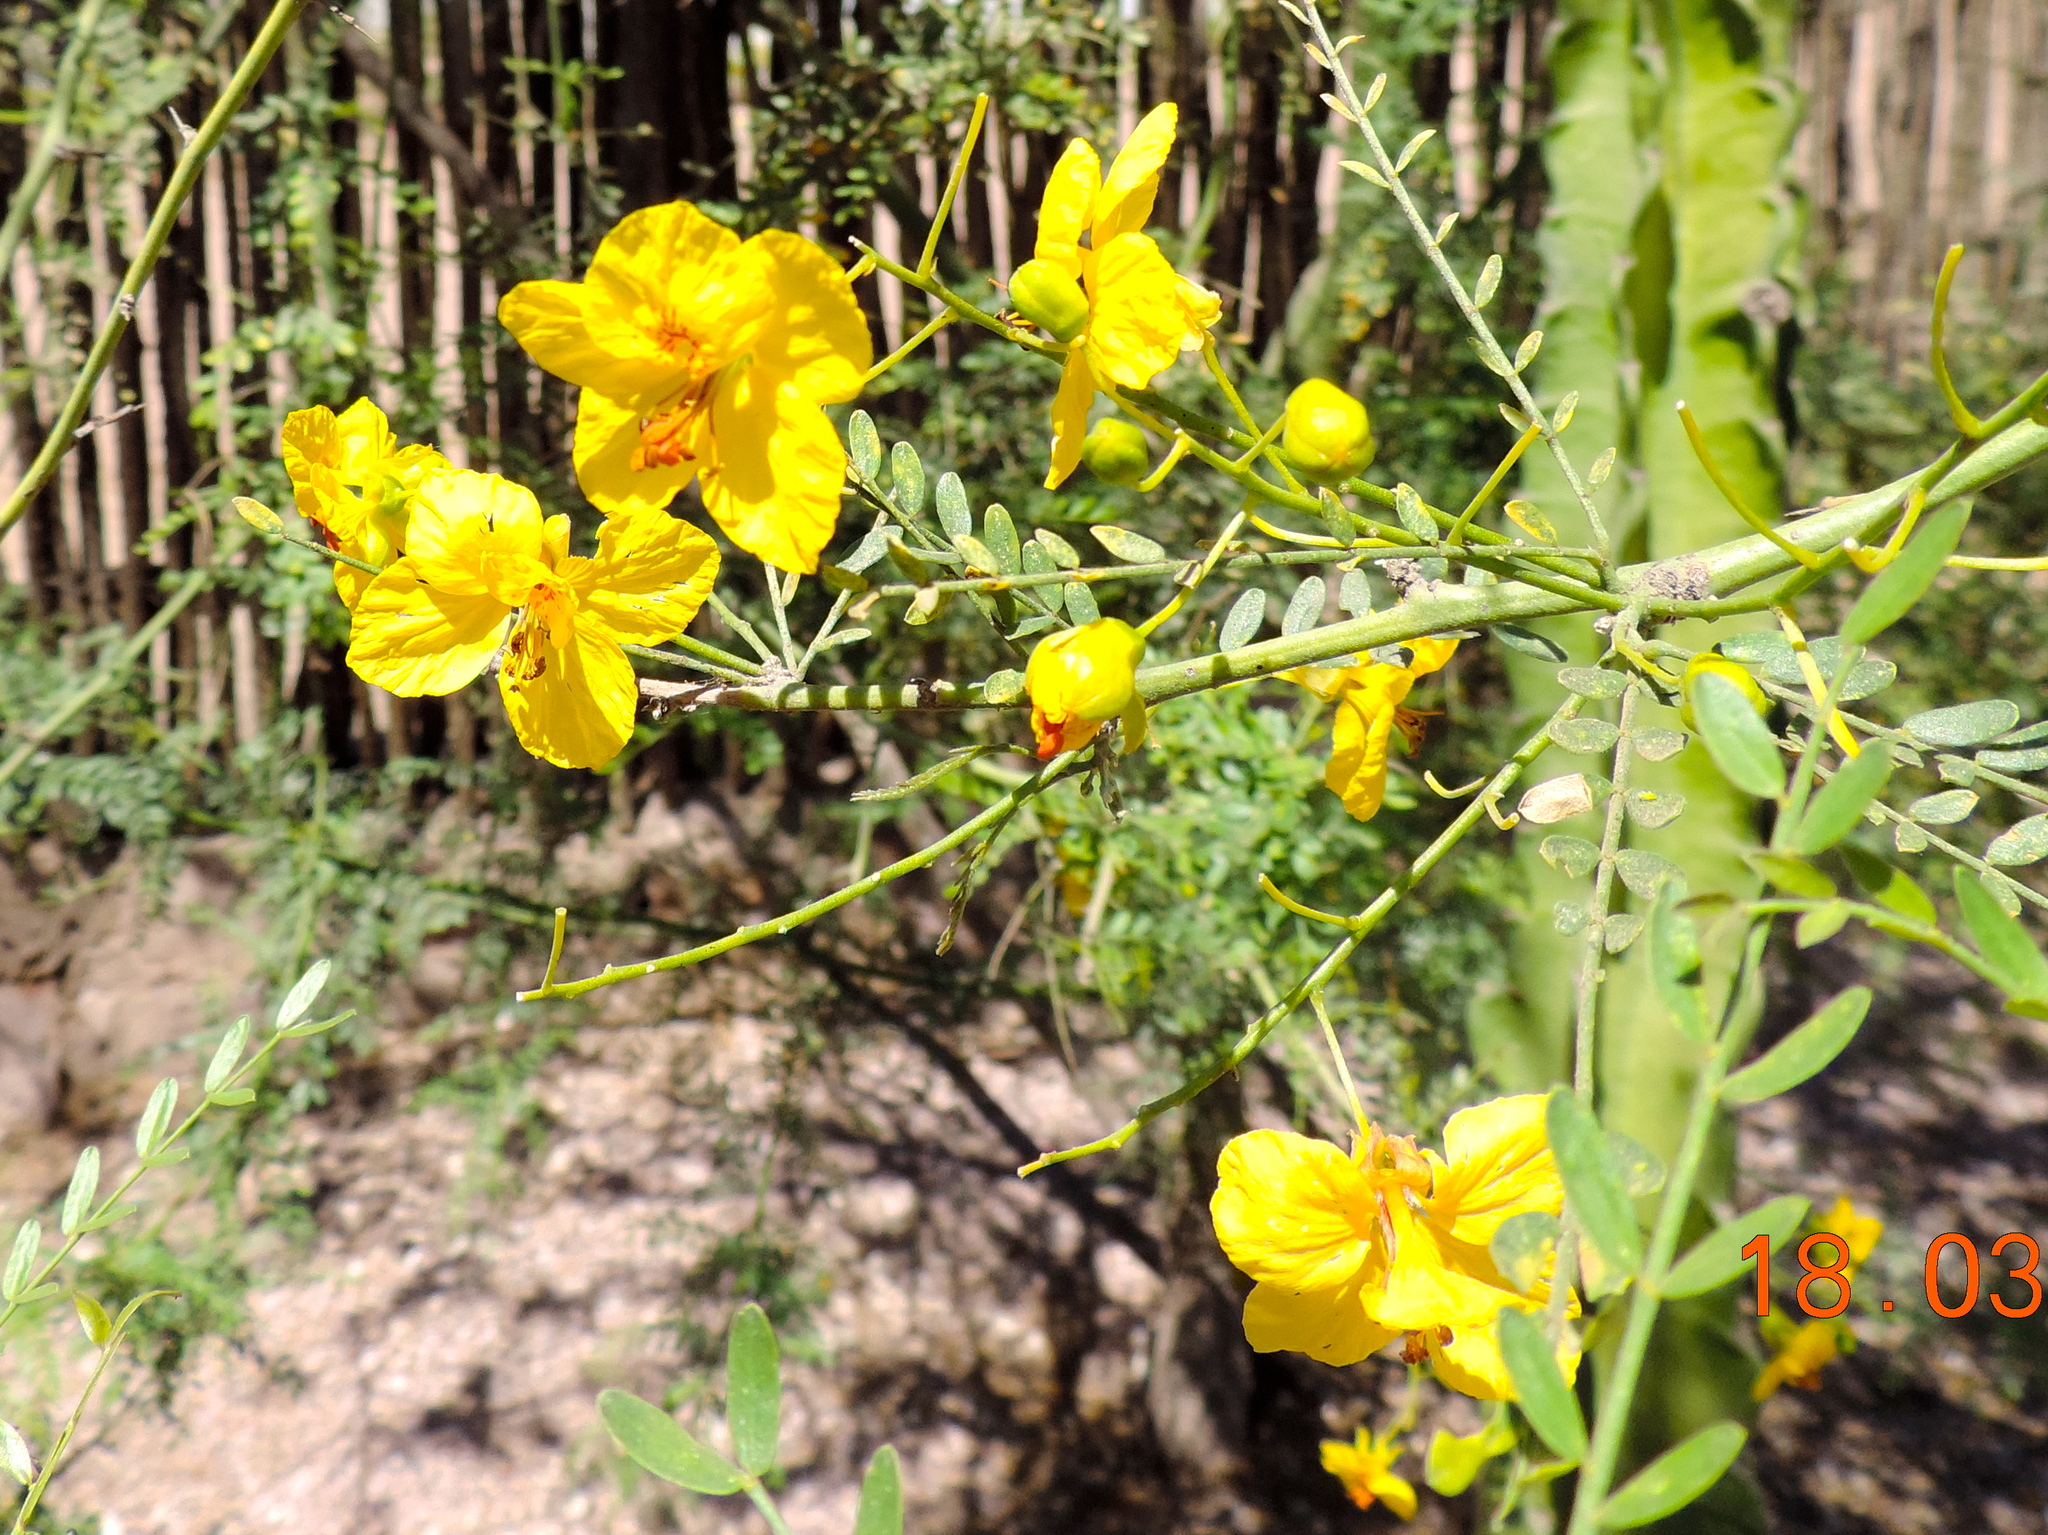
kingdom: Plantae
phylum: Tracheophyta
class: Magnoliopsida
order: Fabales
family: Fabaceae
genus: Parkinsonia
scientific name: Parkinsonia aculeata
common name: Jerusalem thorn
